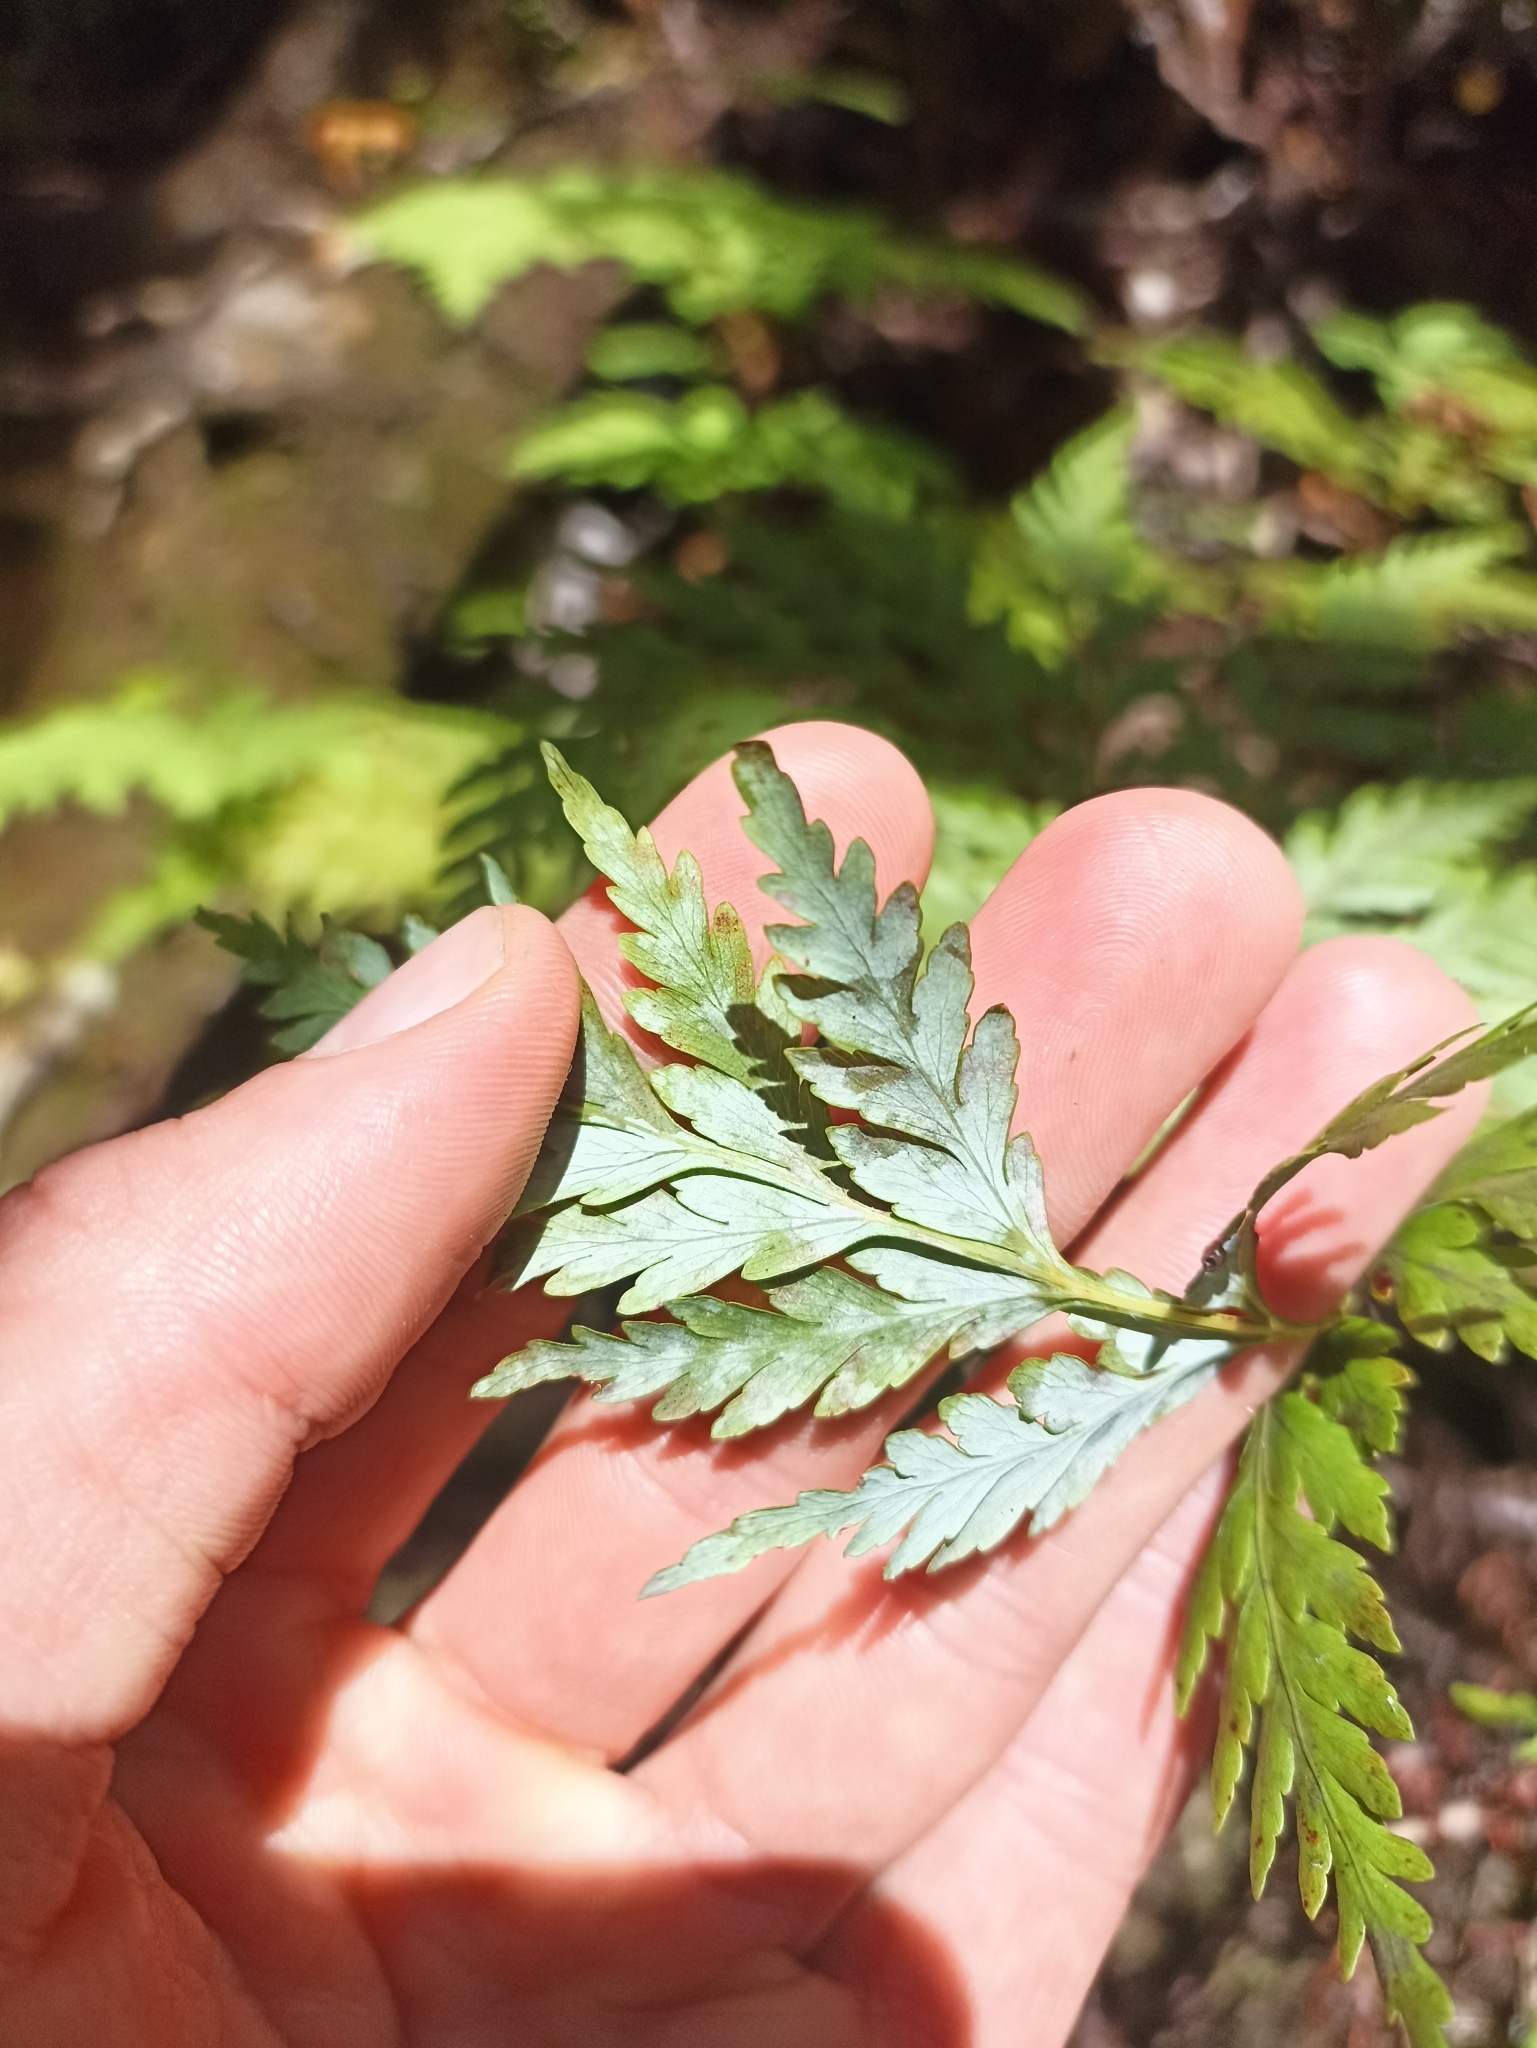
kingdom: Plantae
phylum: Tracheophyta
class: Polypodiopsida
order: Cyatheales
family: Loxsomataceae
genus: Loxsoma
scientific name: Loxsoma cunninghamii
